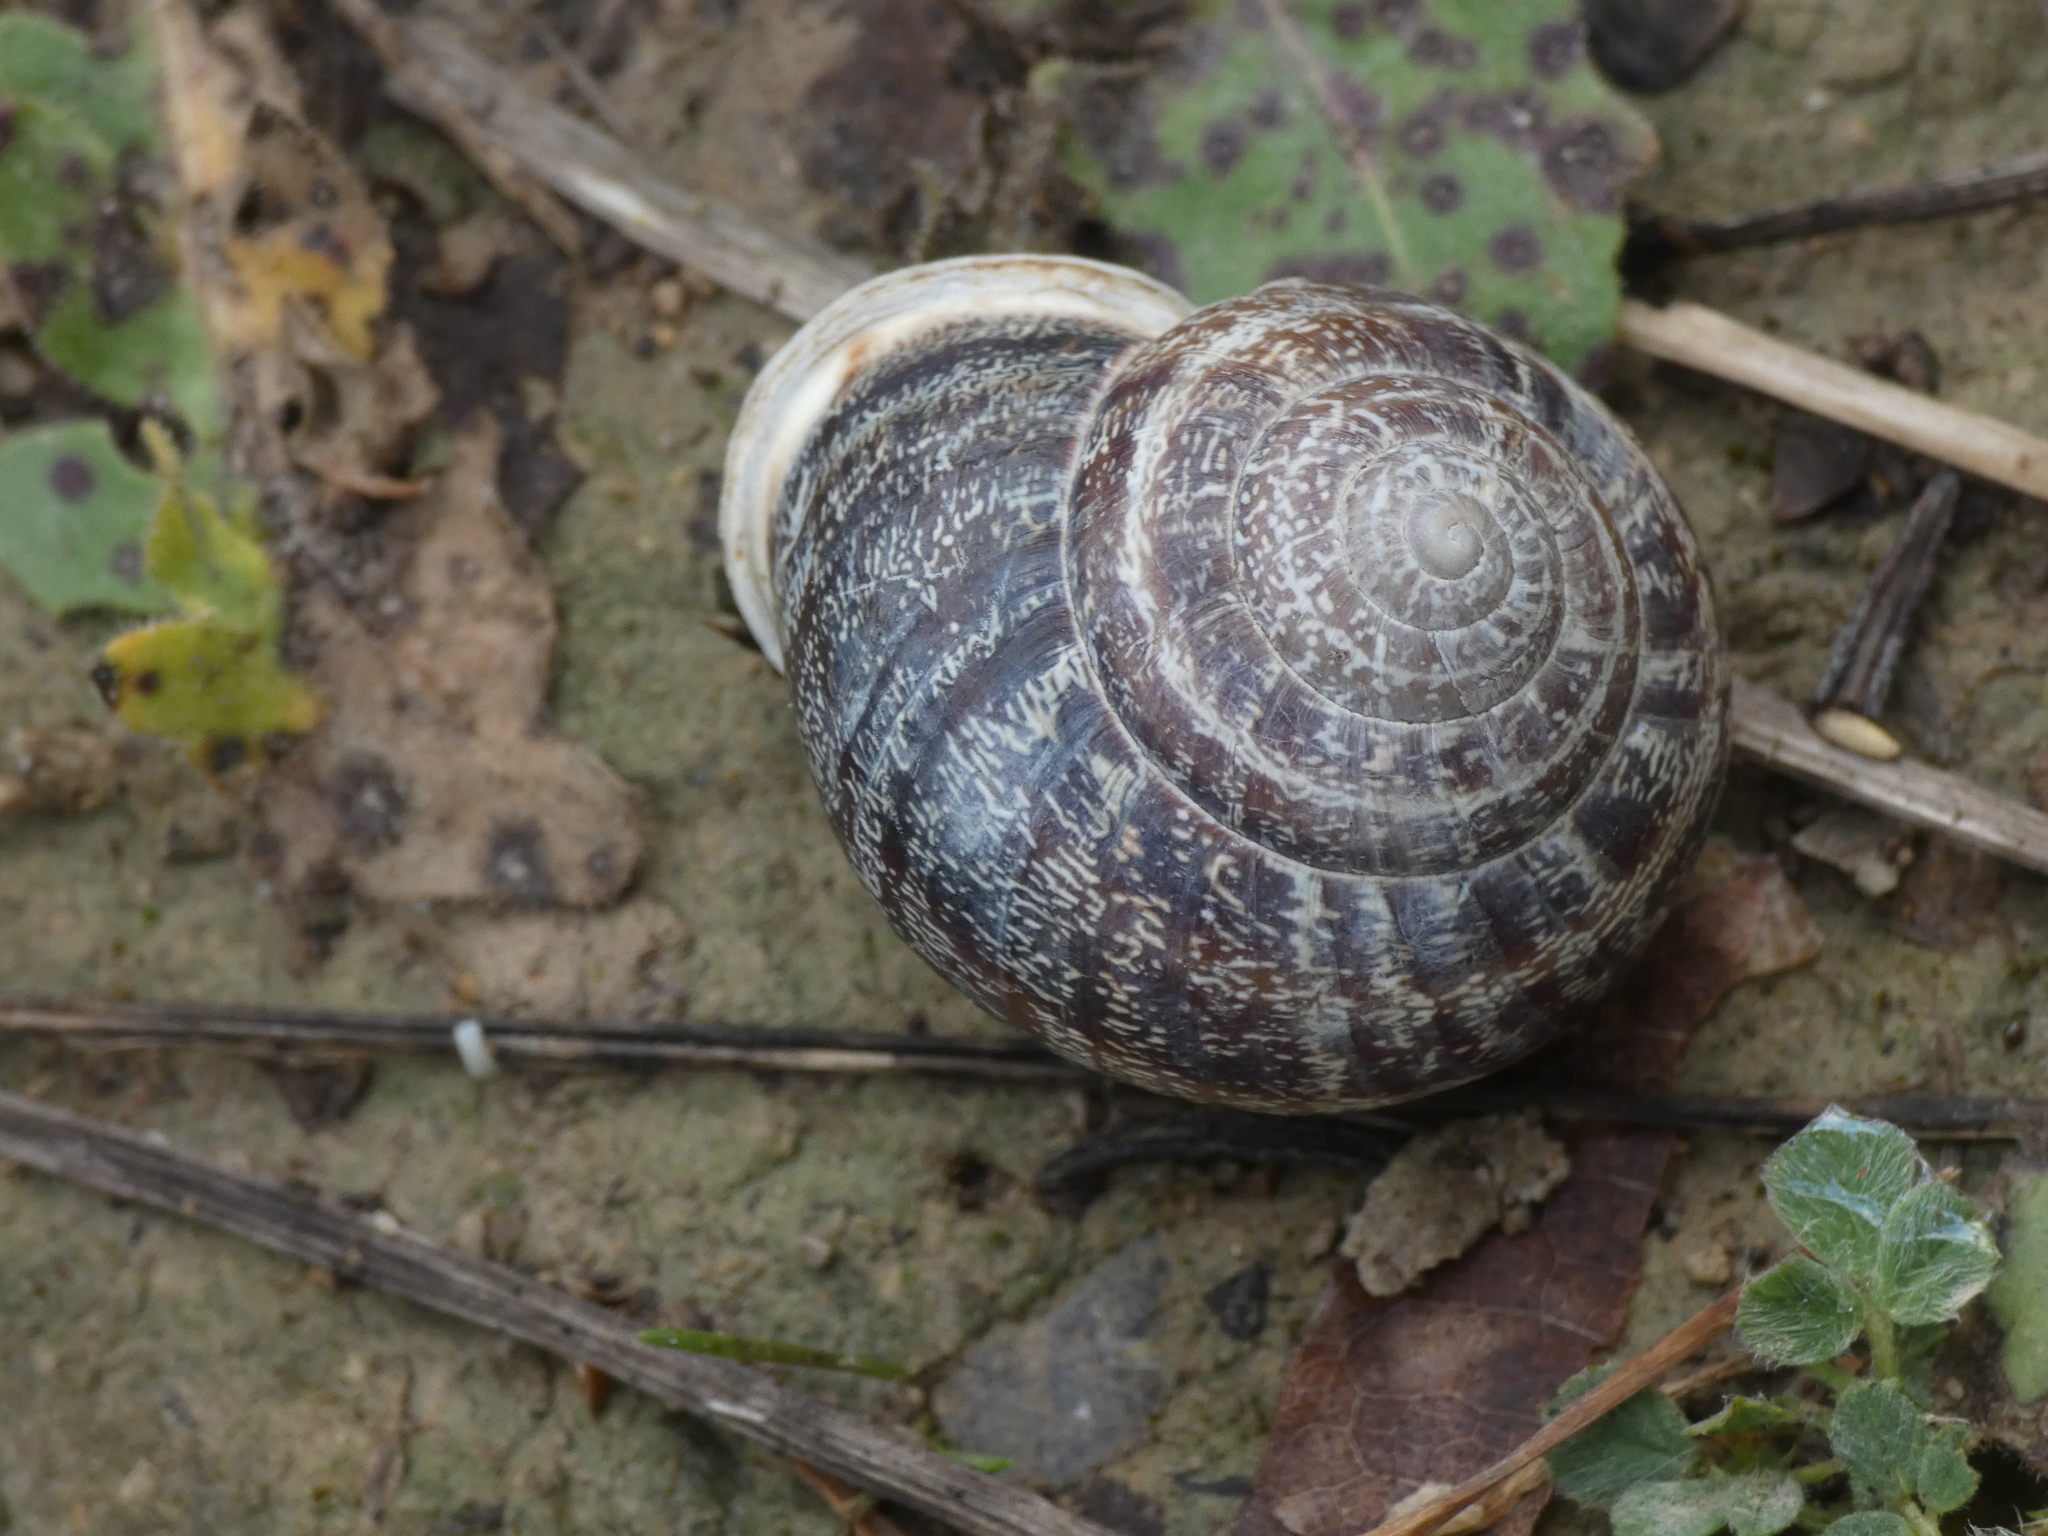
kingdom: Animalia
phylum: Mollusca
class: Gastropoda
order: Stylommatophora
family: Helicidae
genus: Eobania
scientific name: Eobania vermiculata
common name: Chocolateband snail
